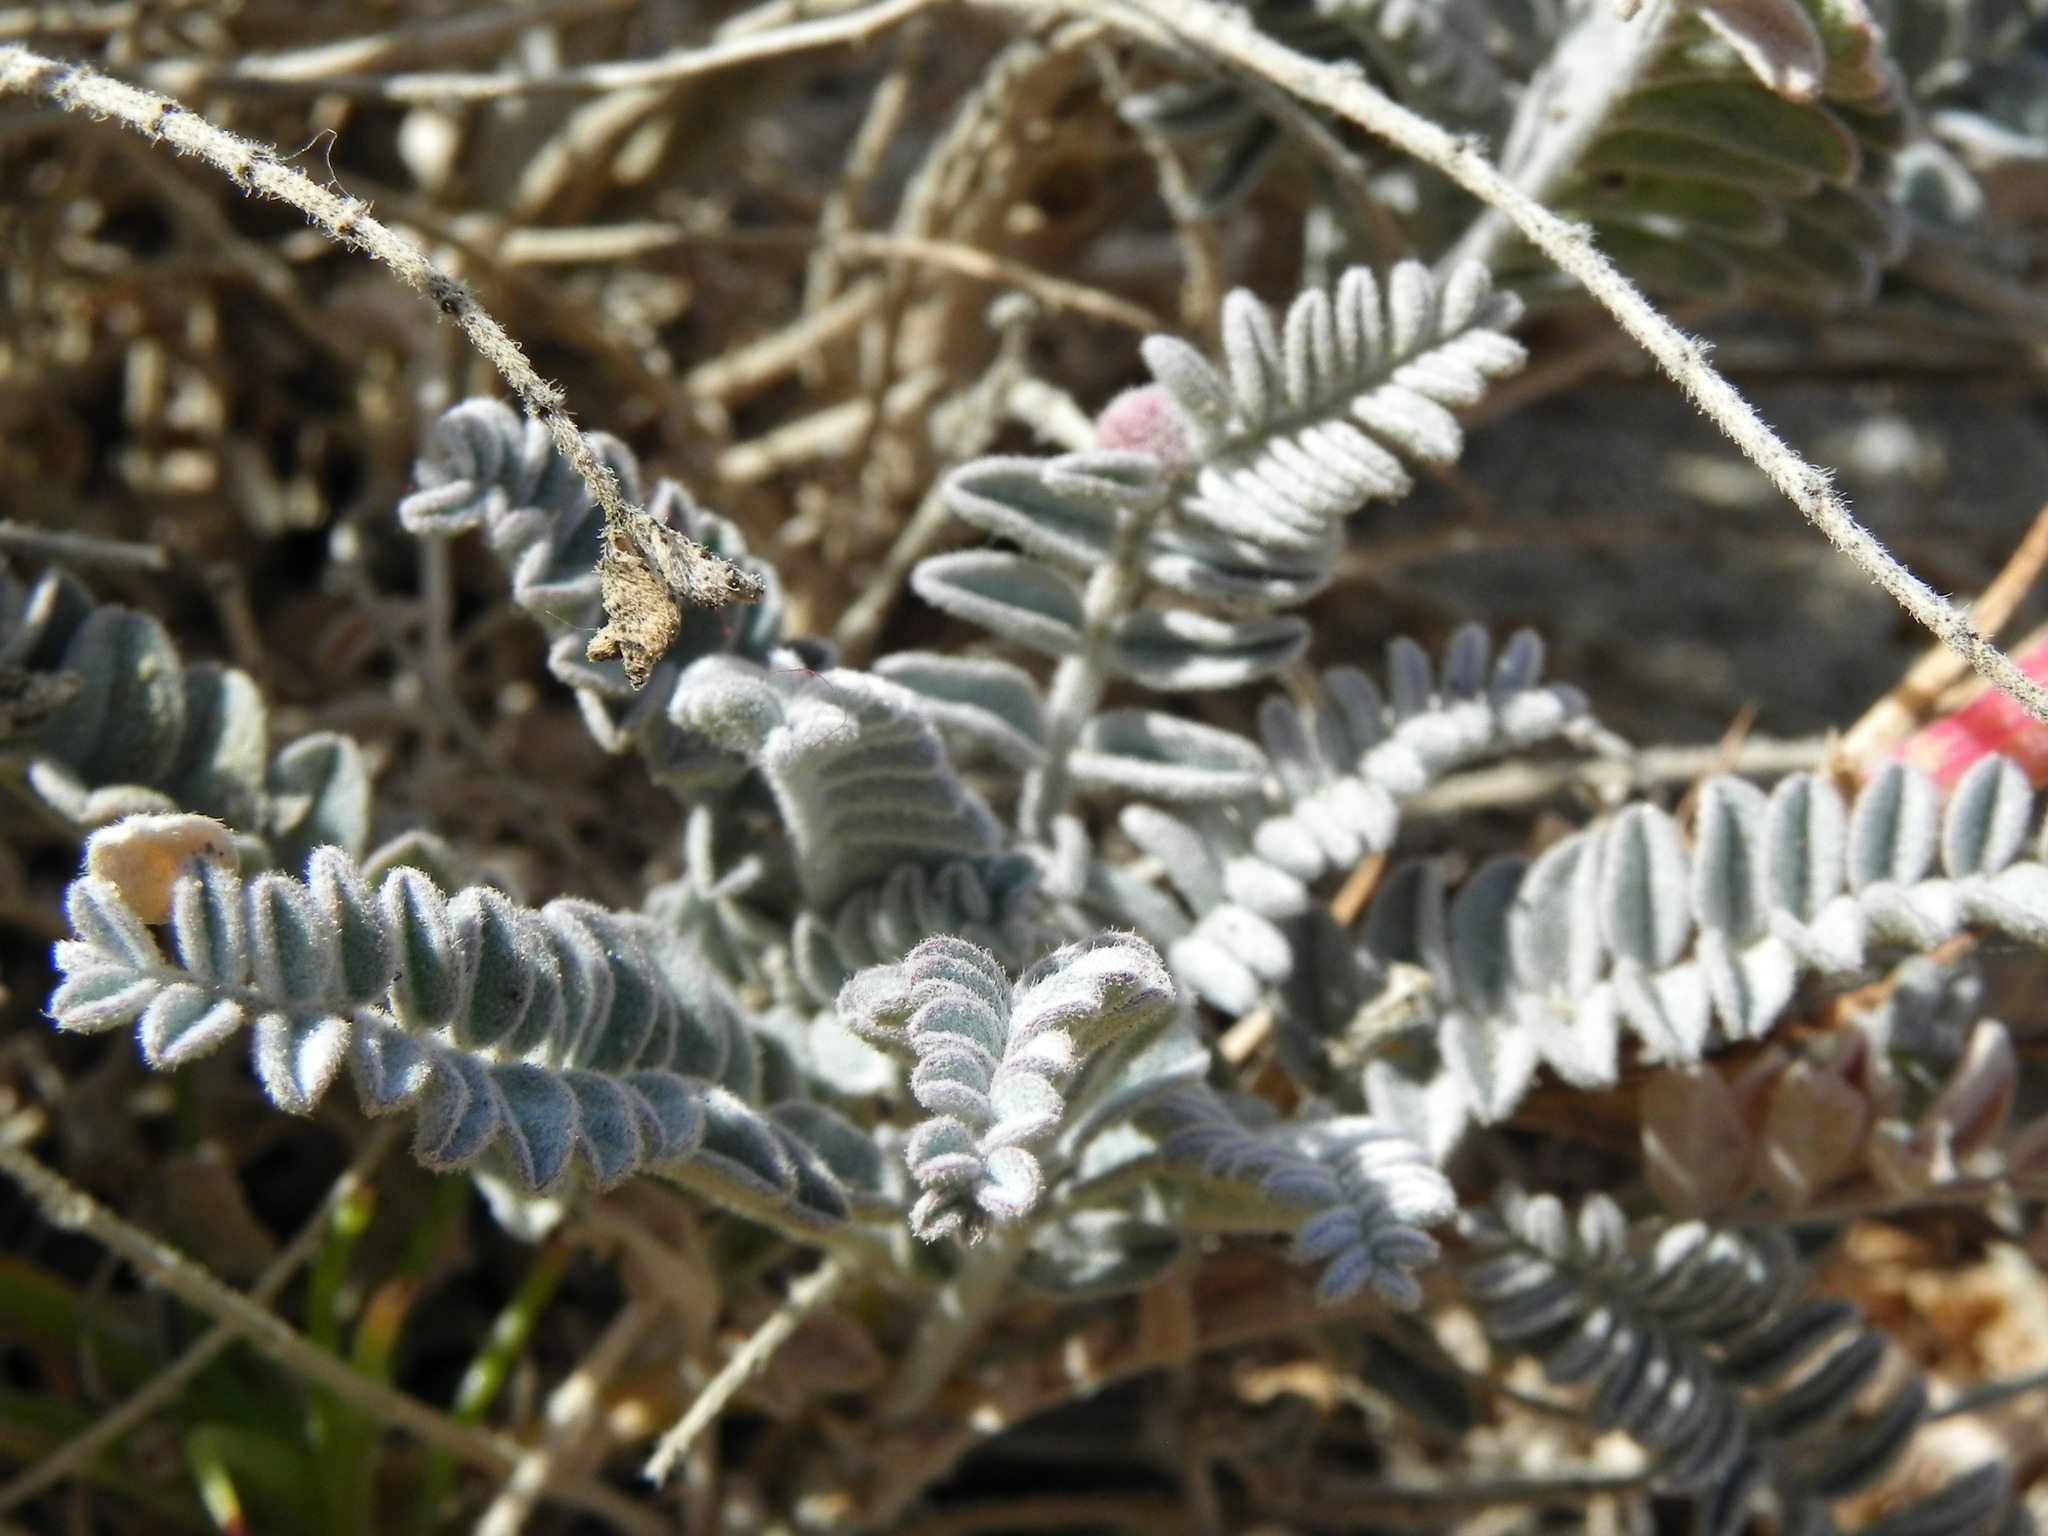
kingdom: Plantae
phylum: Tracheophyta
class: Magnoliopsida
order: Fabales
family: Fabaceae
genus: Astragalus
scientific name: Astragalus trichopodus
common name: Santa barbara milk-vetch
